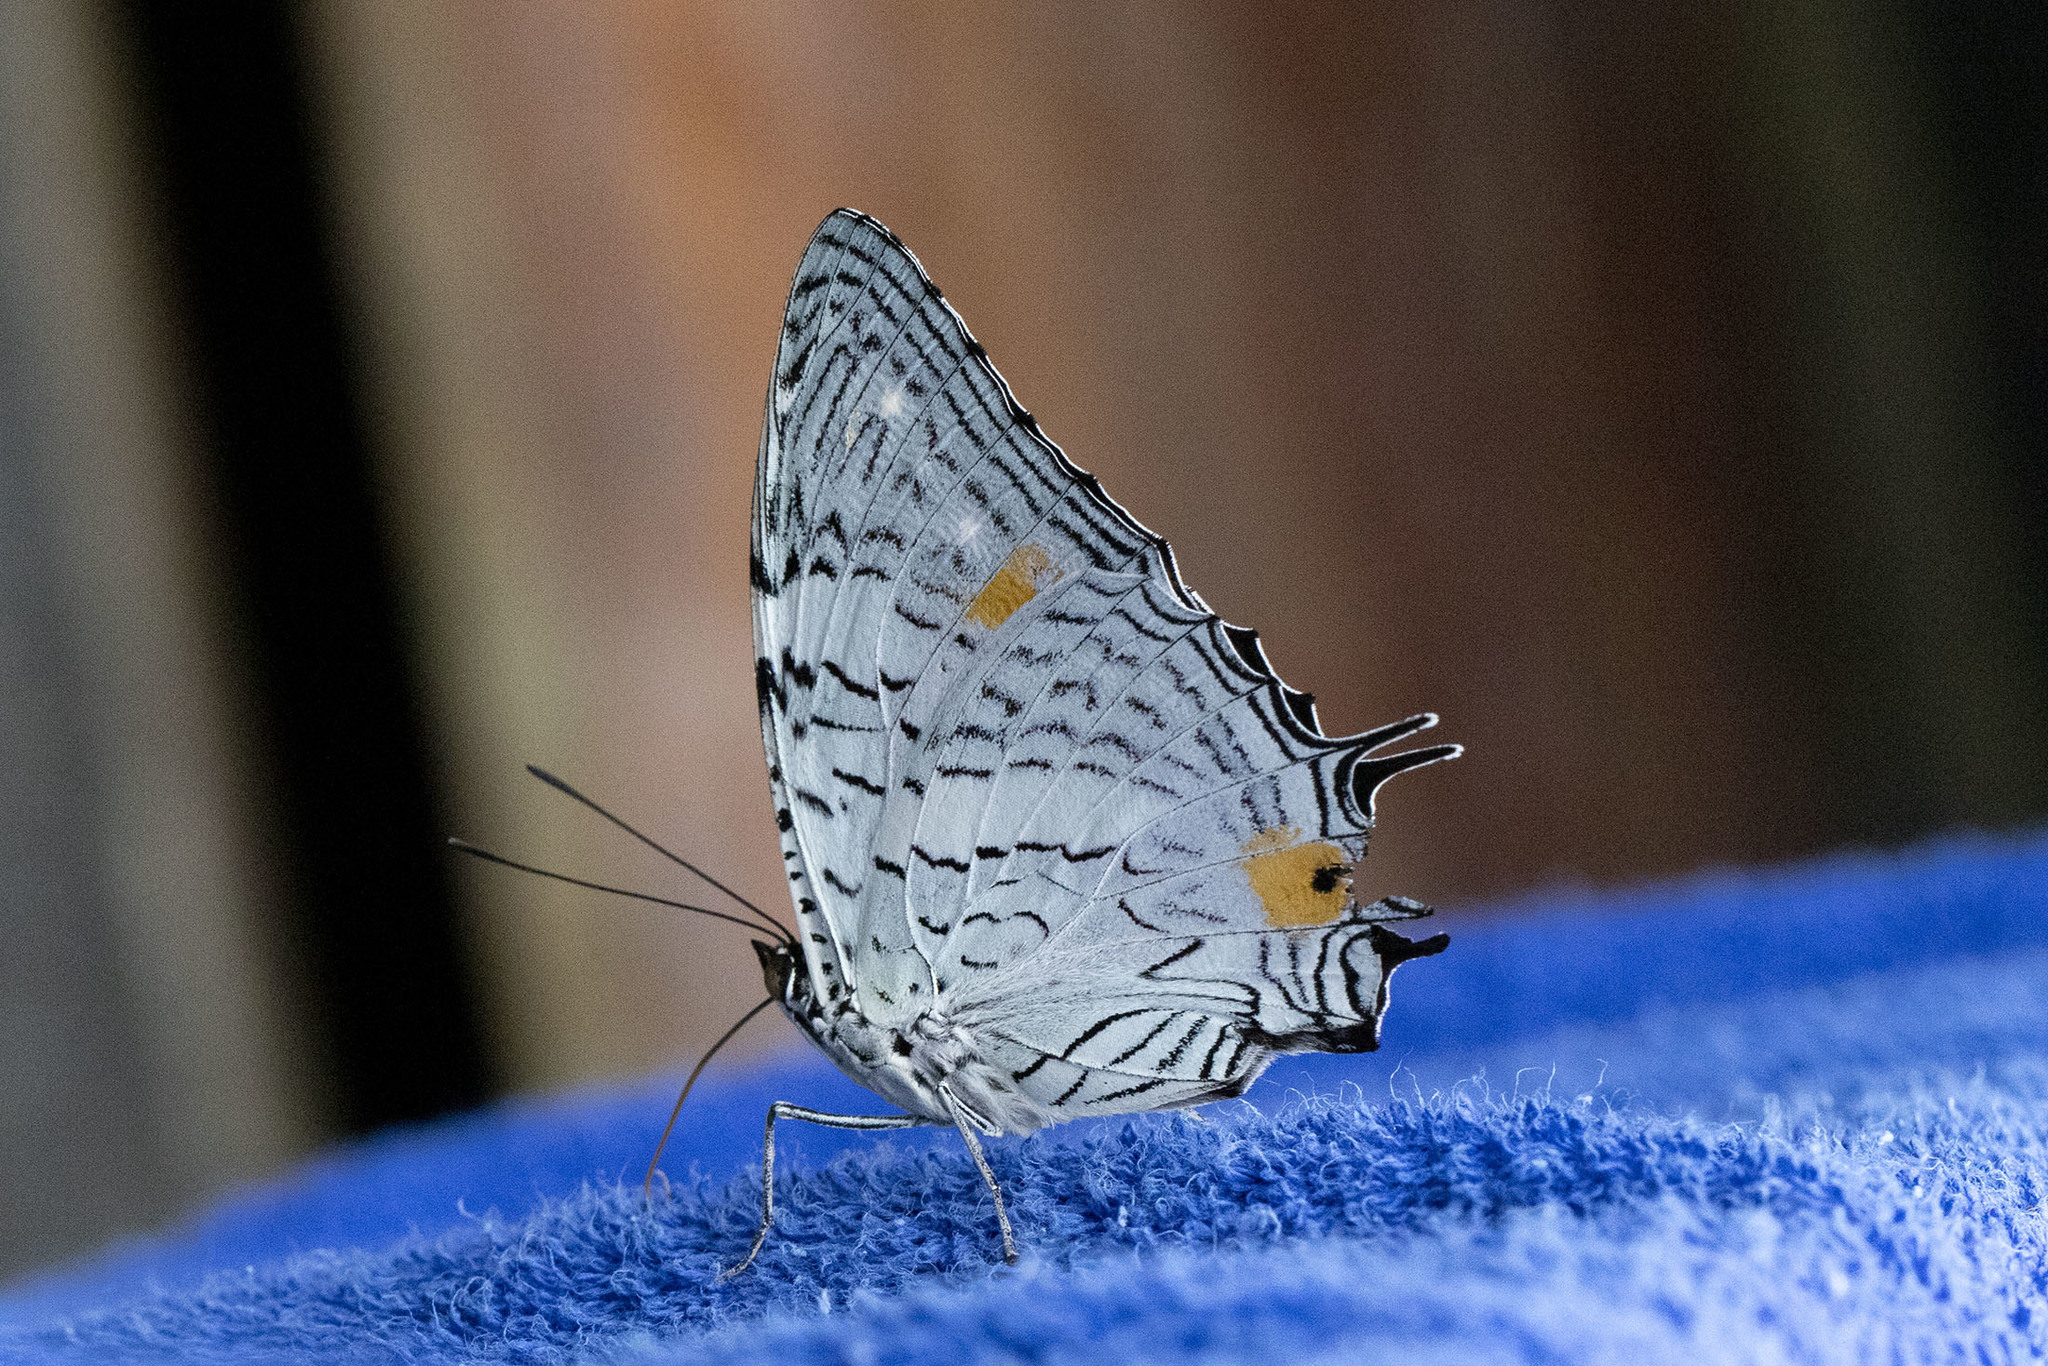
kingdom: Animalia
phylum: Arthropoda
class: Insecta
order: Lepidoptera
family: Nymphalidae
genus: Baeotus
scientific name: Baeotus japetus
